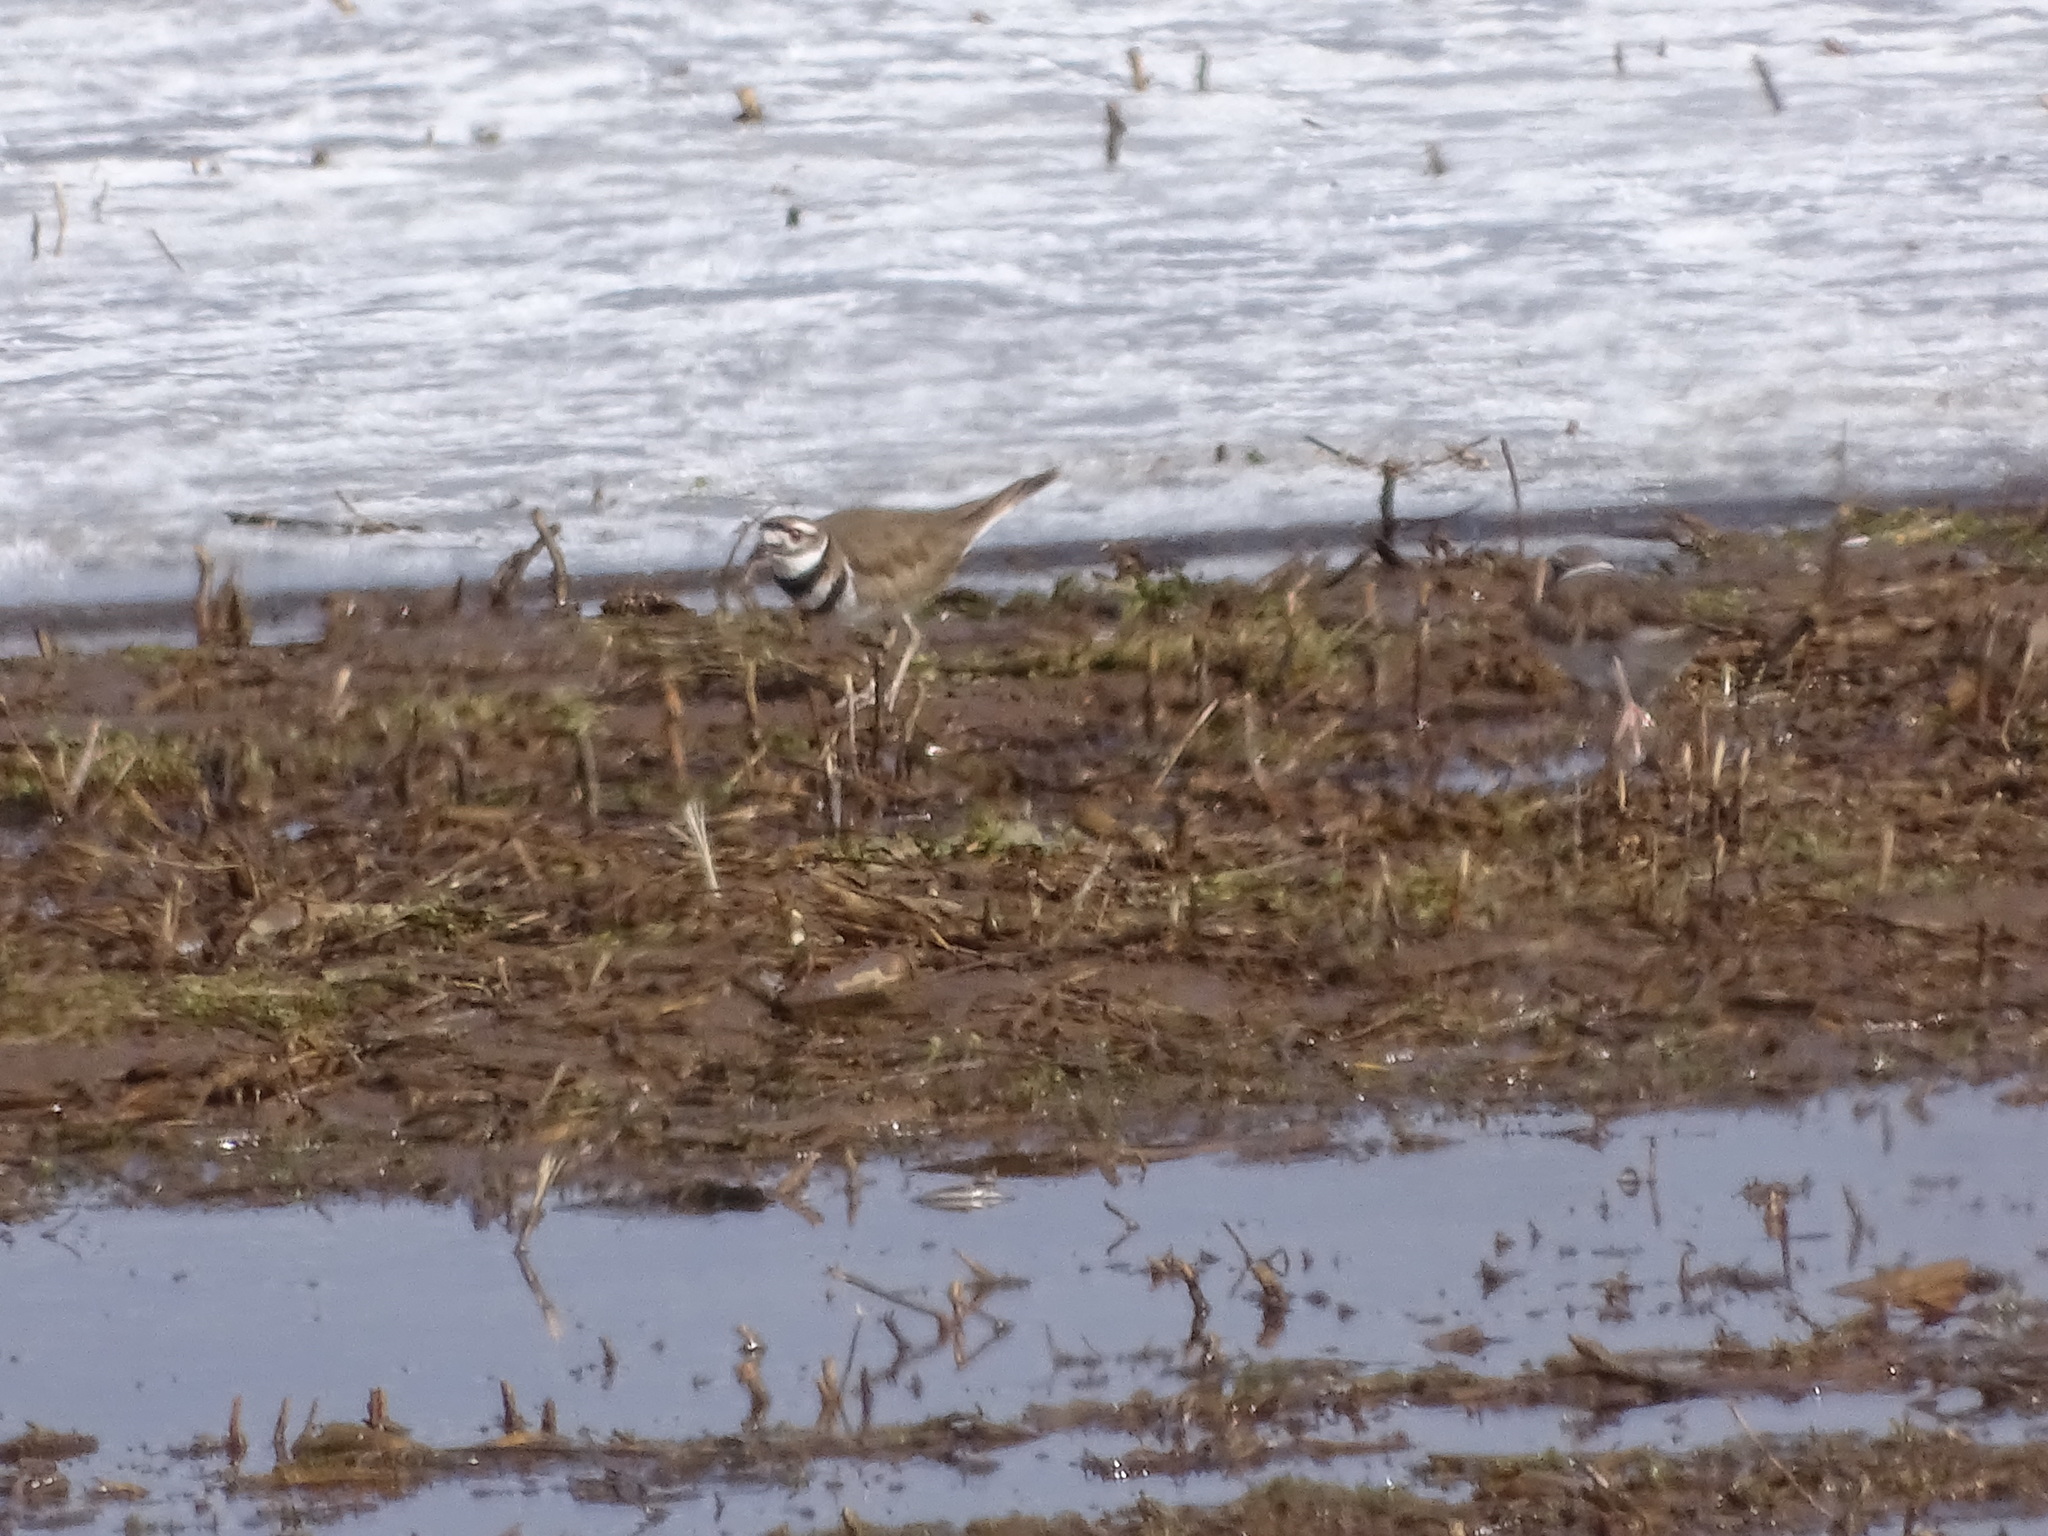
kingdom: Animalia
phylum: Chordata
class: Aves
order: Charadriiformes
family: Charadriidae
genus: Charadrius
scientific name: Charadrius vociferus
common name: Killdeer
